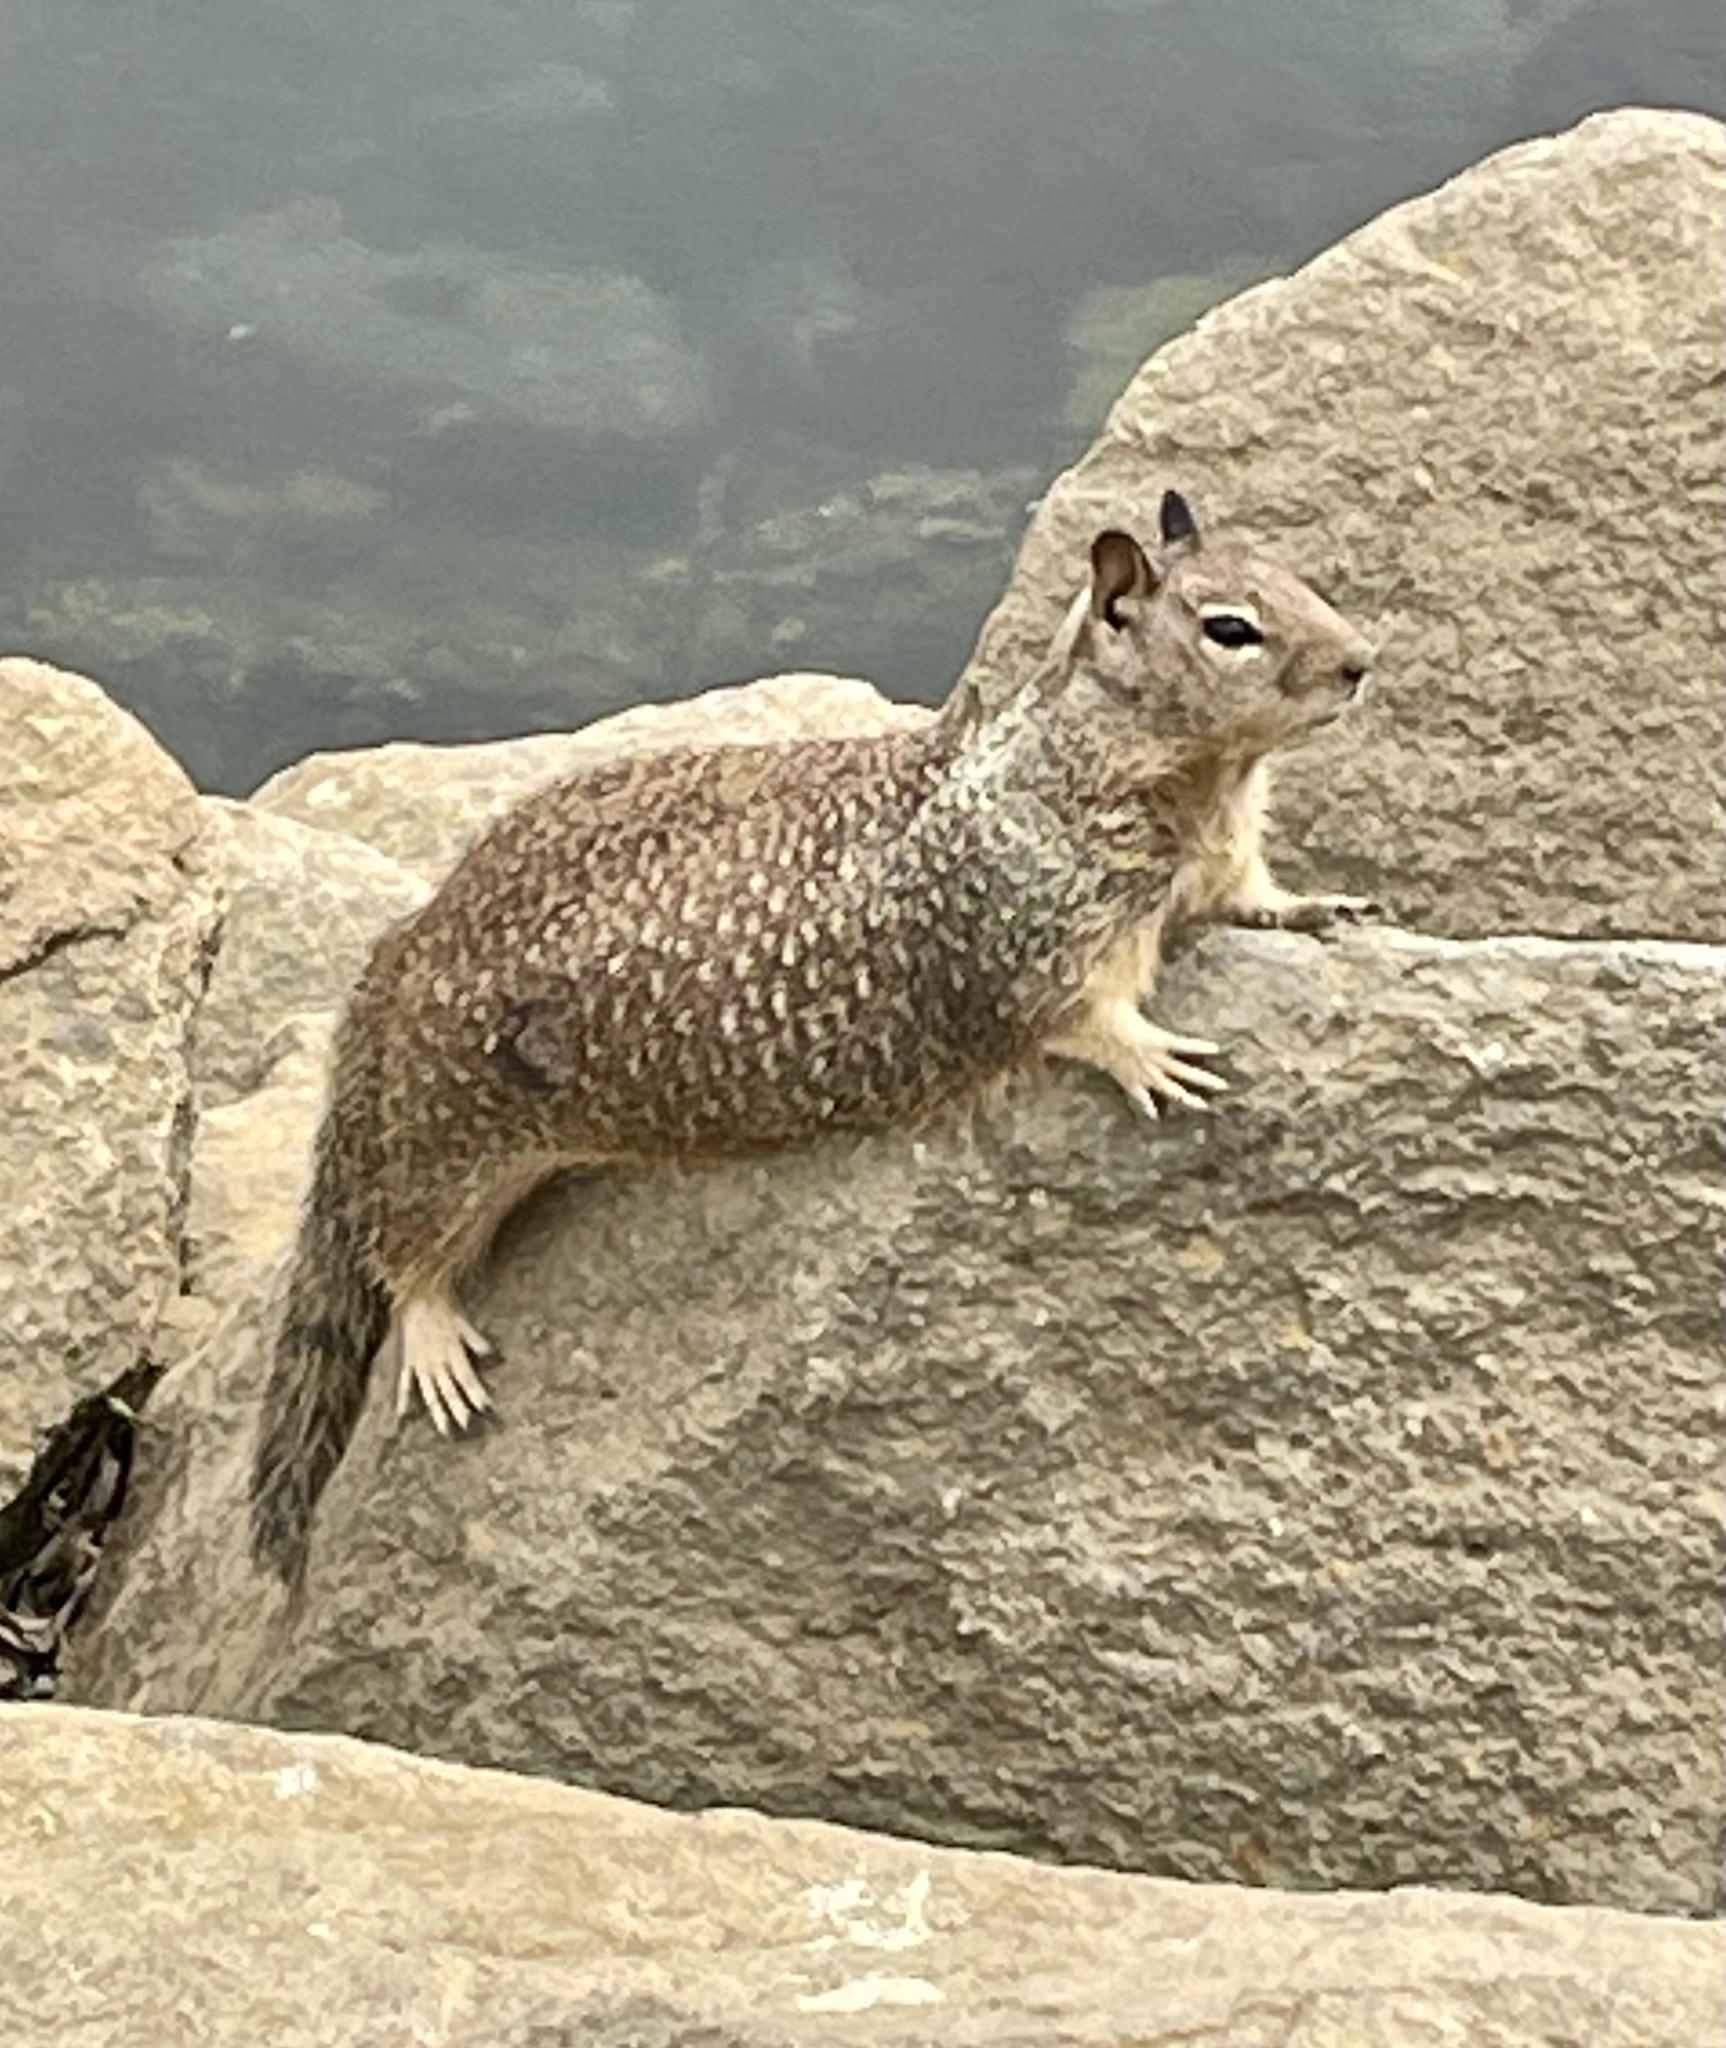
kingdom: Animalia
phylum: Chordata
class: Mammalia
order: Rodentia
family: Sciuridae
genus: Otospermophilus
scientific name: Otospermophilus beecheyi
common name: California ground squirrel
